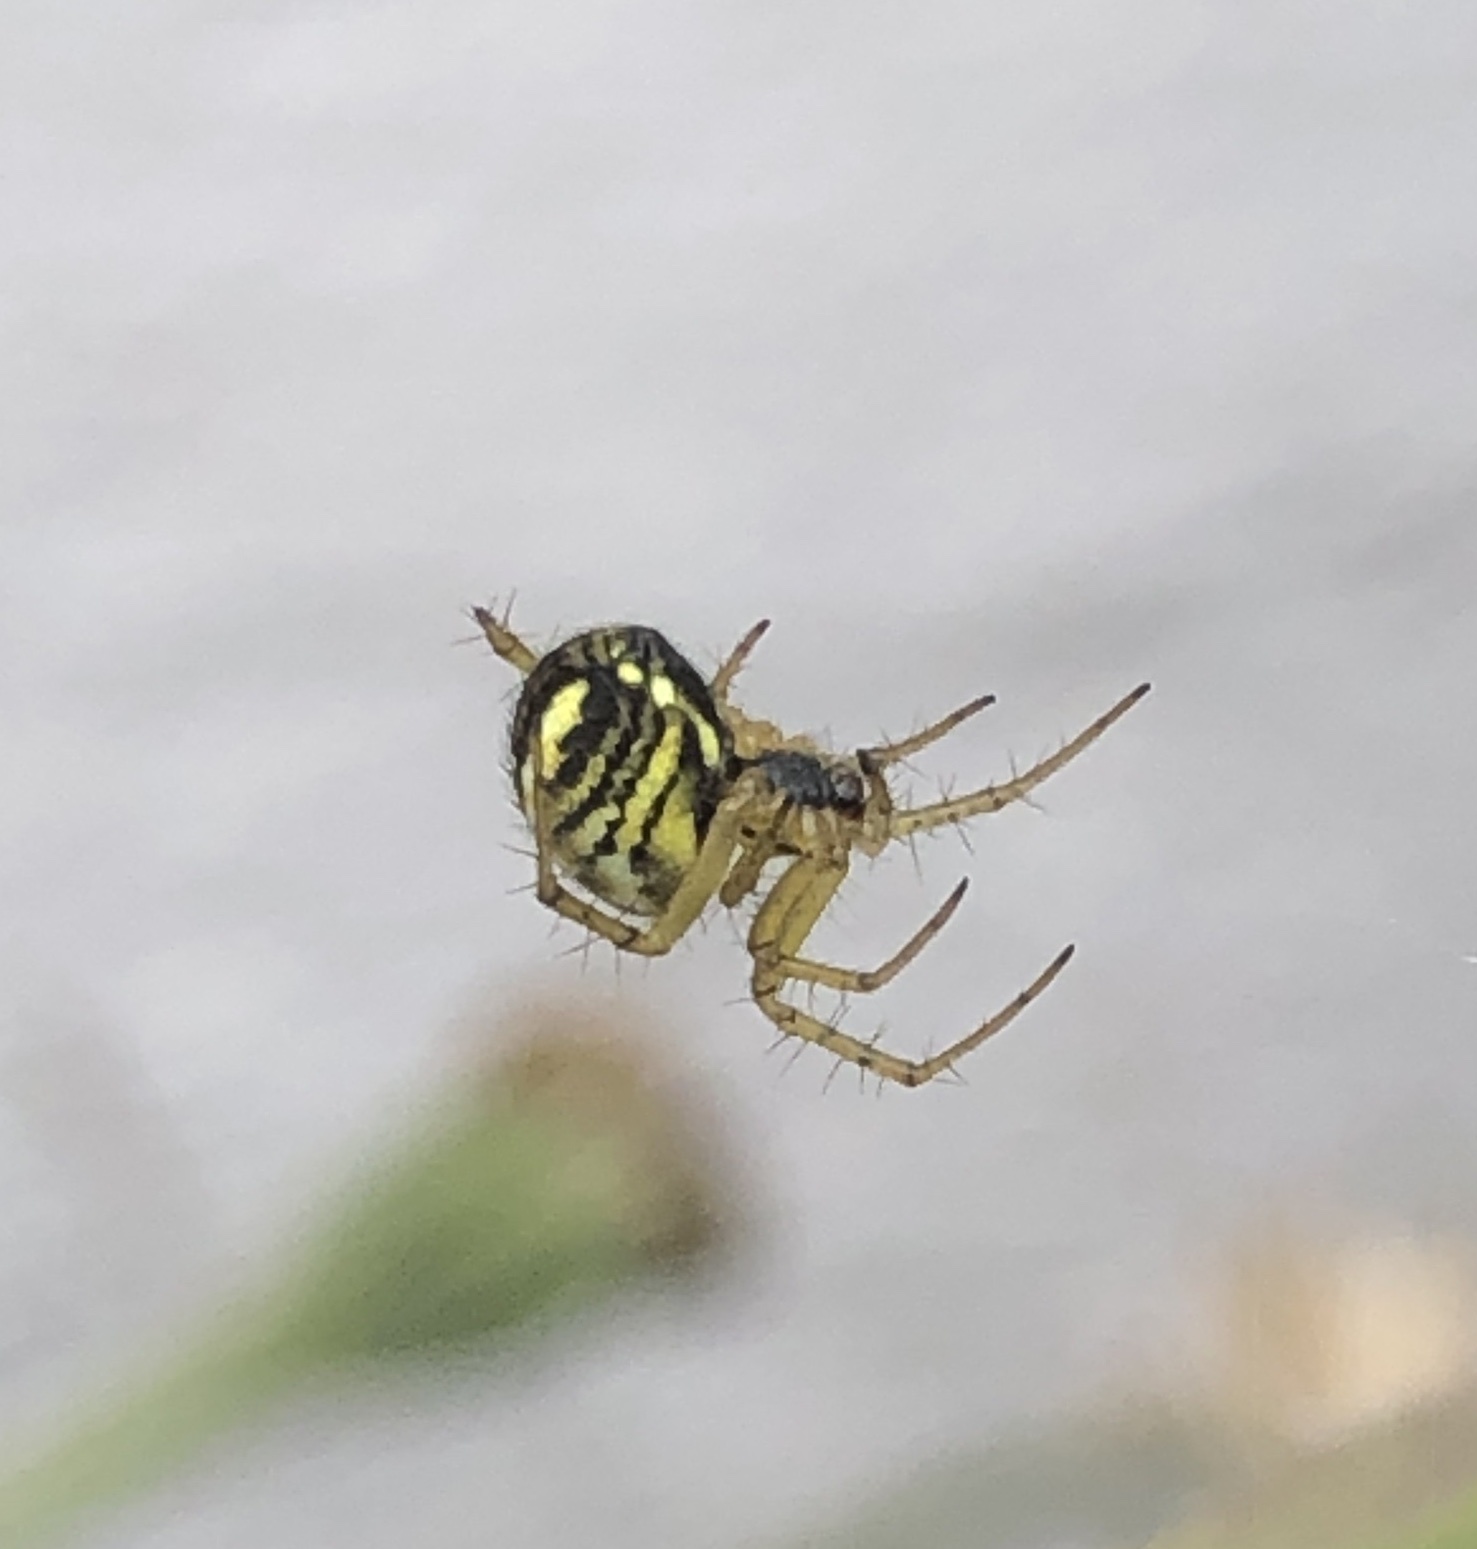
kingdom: Animalia
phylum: Arthropoda
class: Arachnida
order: Araneae
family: Araneidae
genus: Mangora
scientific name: Mangora acalypha
